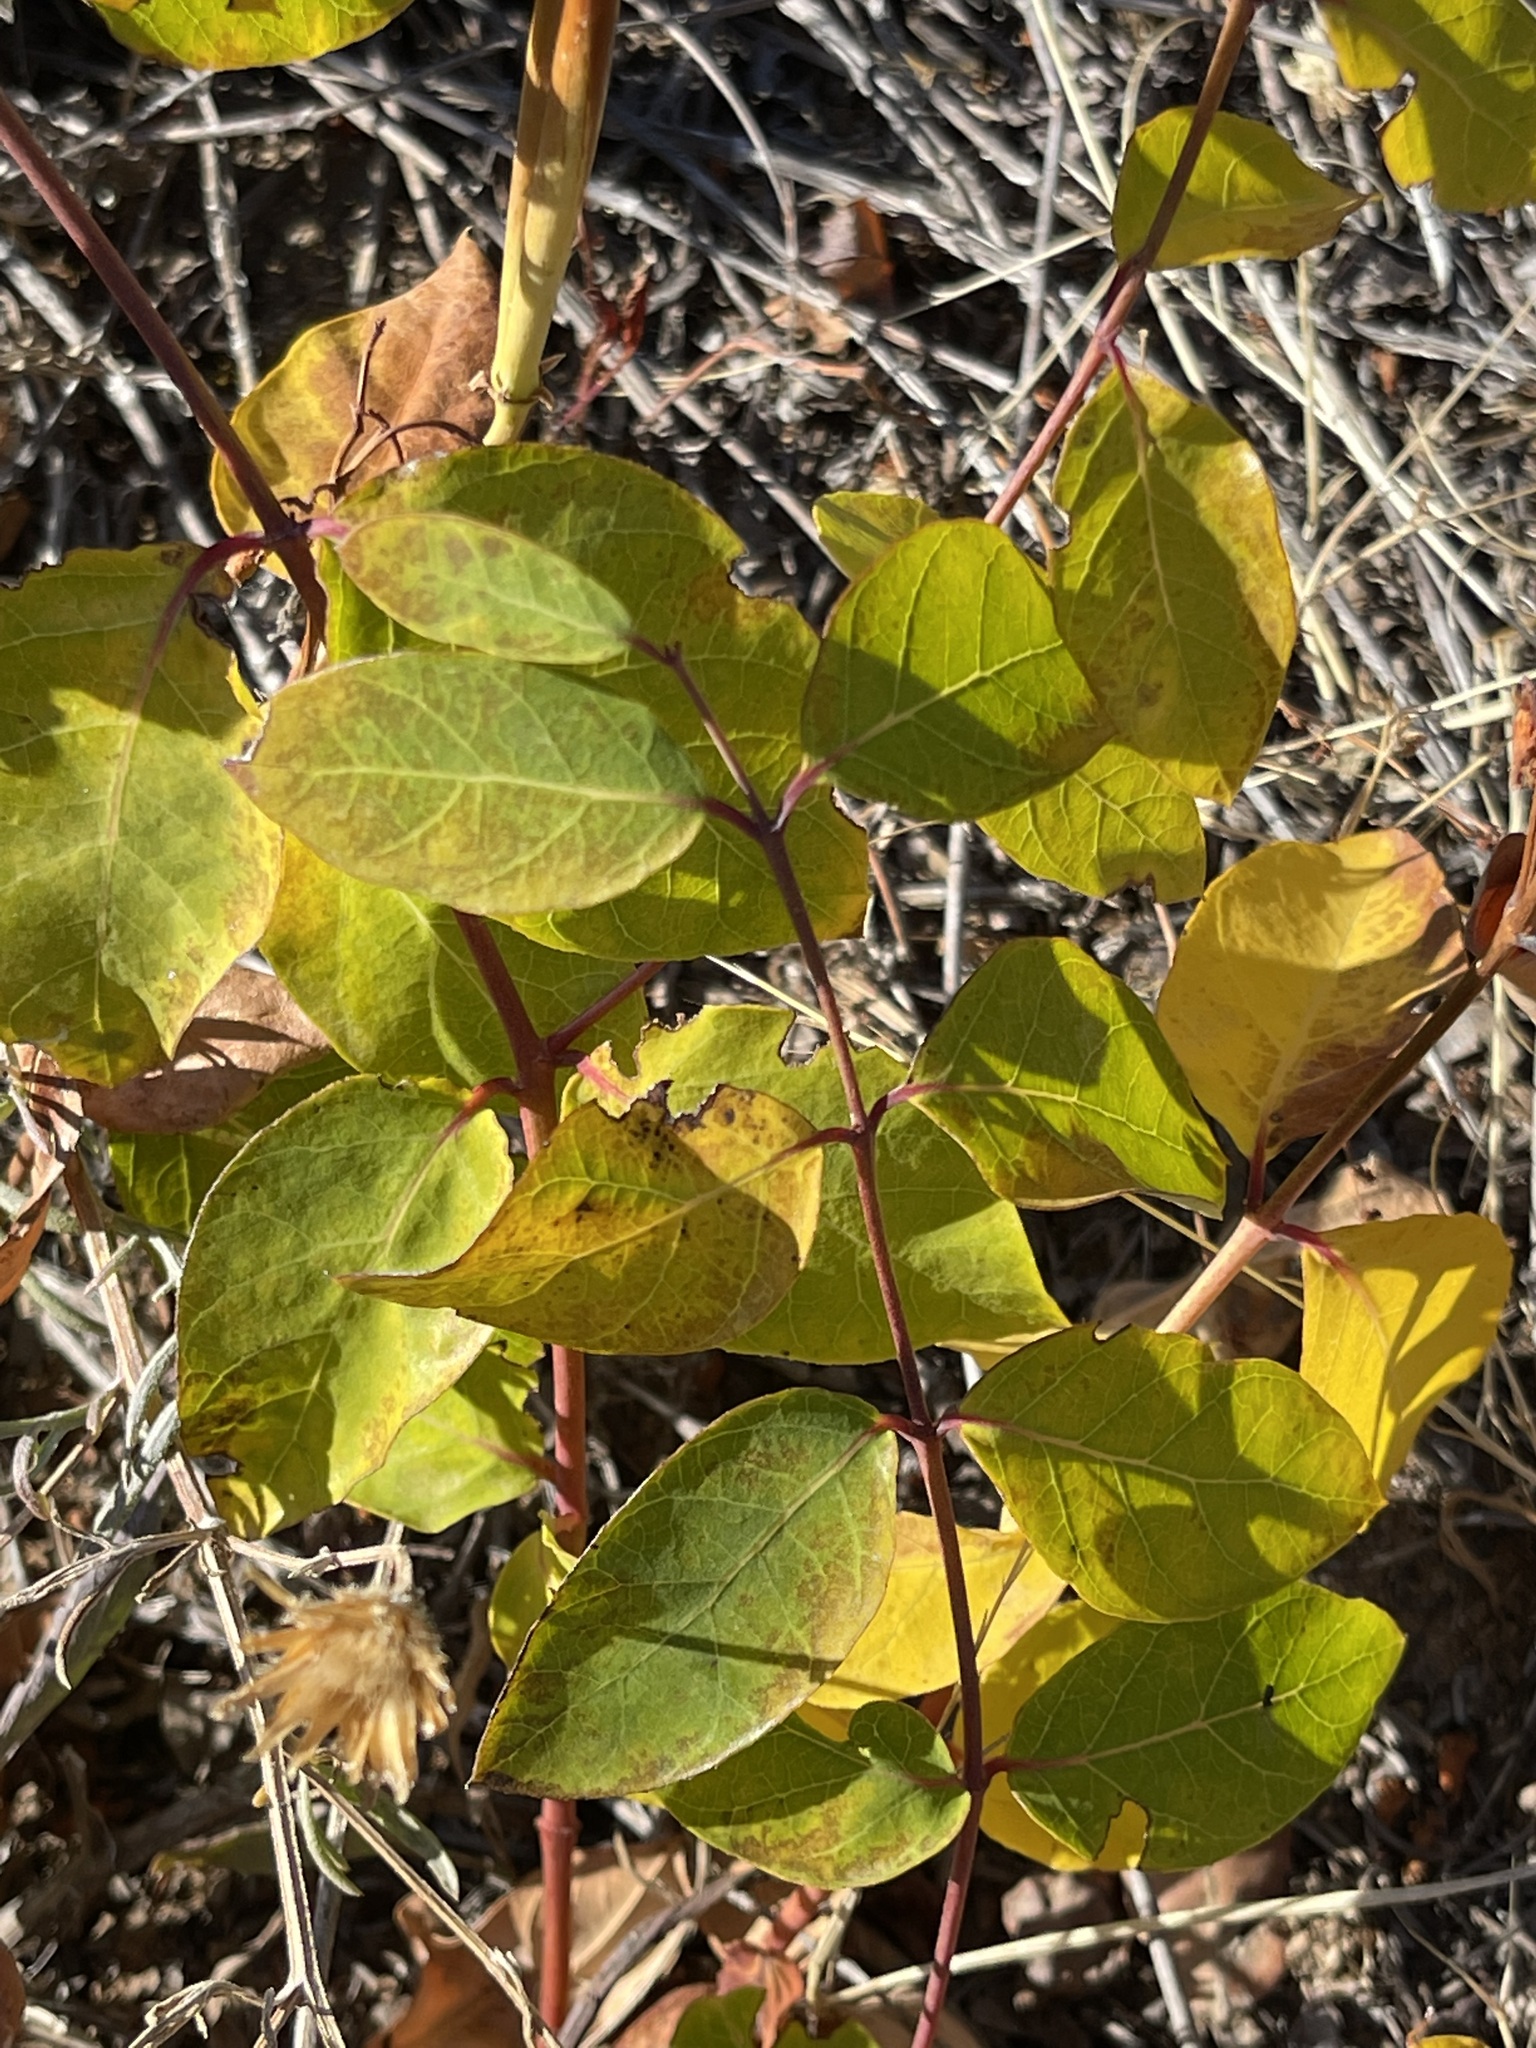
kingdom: Plantae
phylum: Tracheophyta
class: Magnoliopsida
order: Gentianales
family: Apocynaceae
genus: Apocynum
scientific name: Apocynum androsaemifolium
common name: Spreading dogbane
